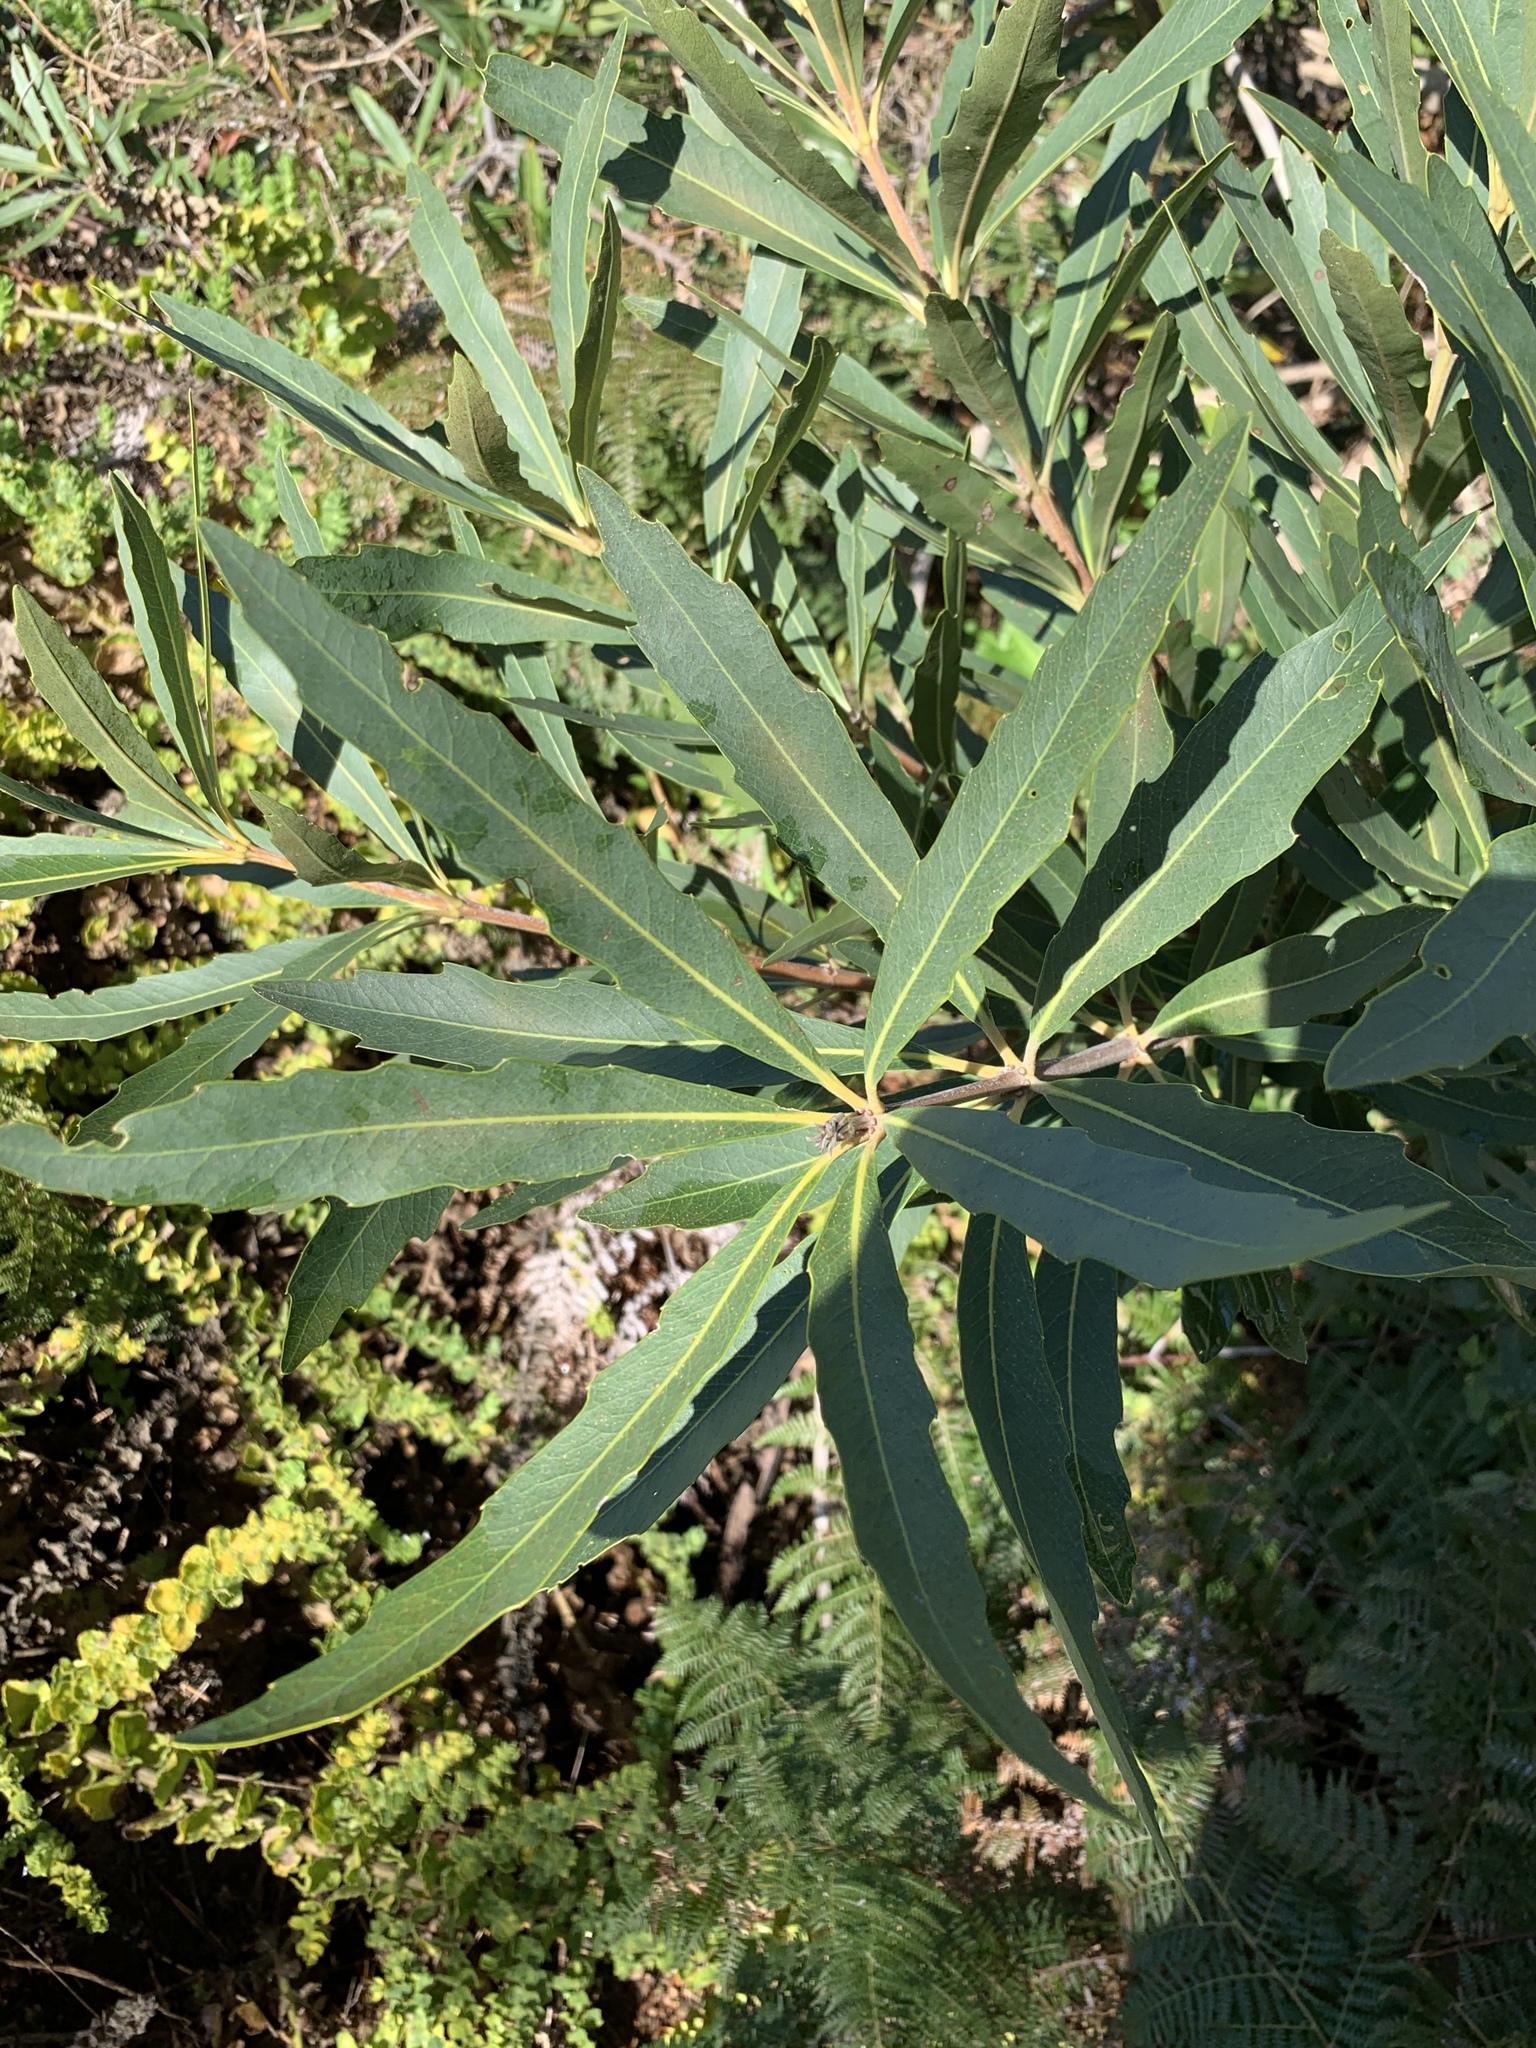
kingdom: Plantae
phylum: Tracheophyta
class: Magnoliopsida
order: Proteales
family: Proteaceae
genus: Brabejum
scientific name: Brabejum stellatifolium
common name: Wild almond
